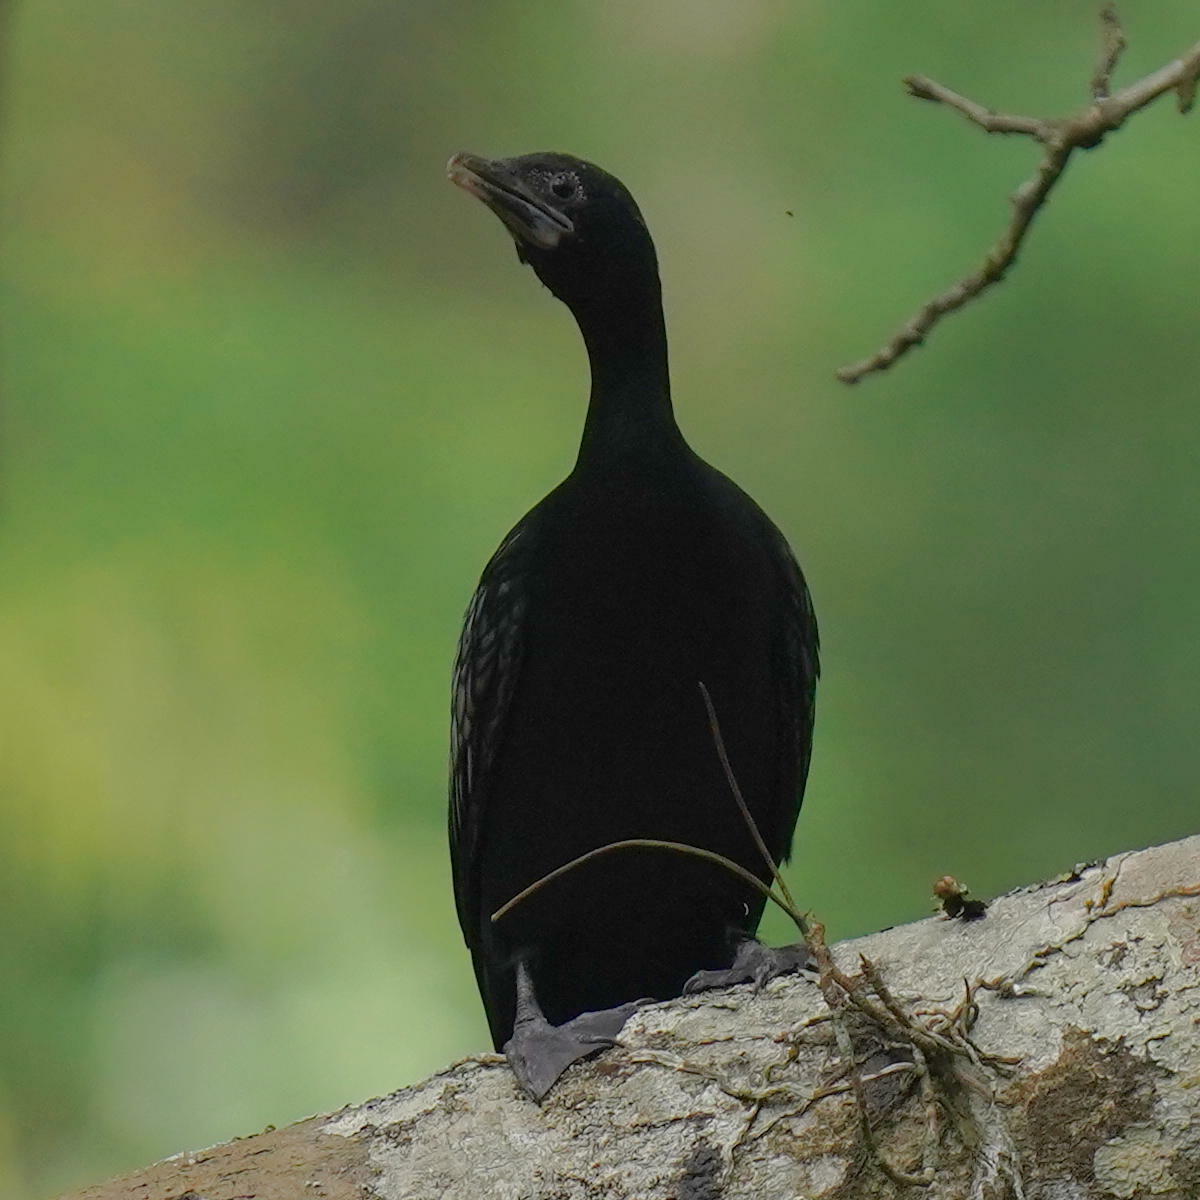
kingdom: Animalia
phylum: Chordata
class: Aves
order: Suliformes
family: Phalacrocoracidae
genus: Microcarbo
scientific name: Microcarbo niger
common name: Little cormorant
